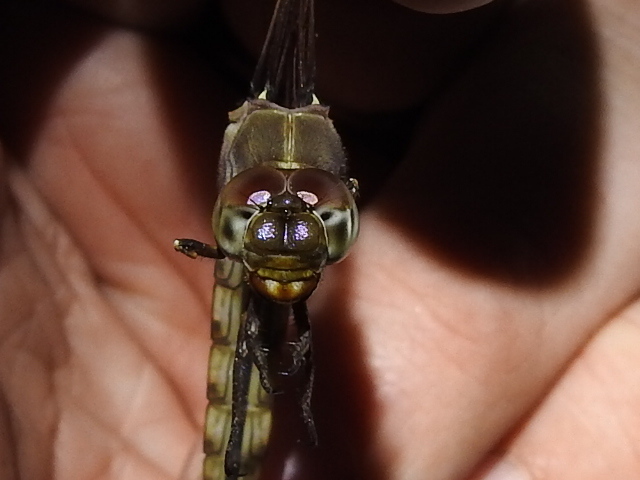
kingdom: Animalia
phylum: Arthropoda
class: Insecta
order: Odonata
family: Libellulidae
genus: Orthemis
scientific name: Orthemis ferruginea
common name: Roseate skimmer
